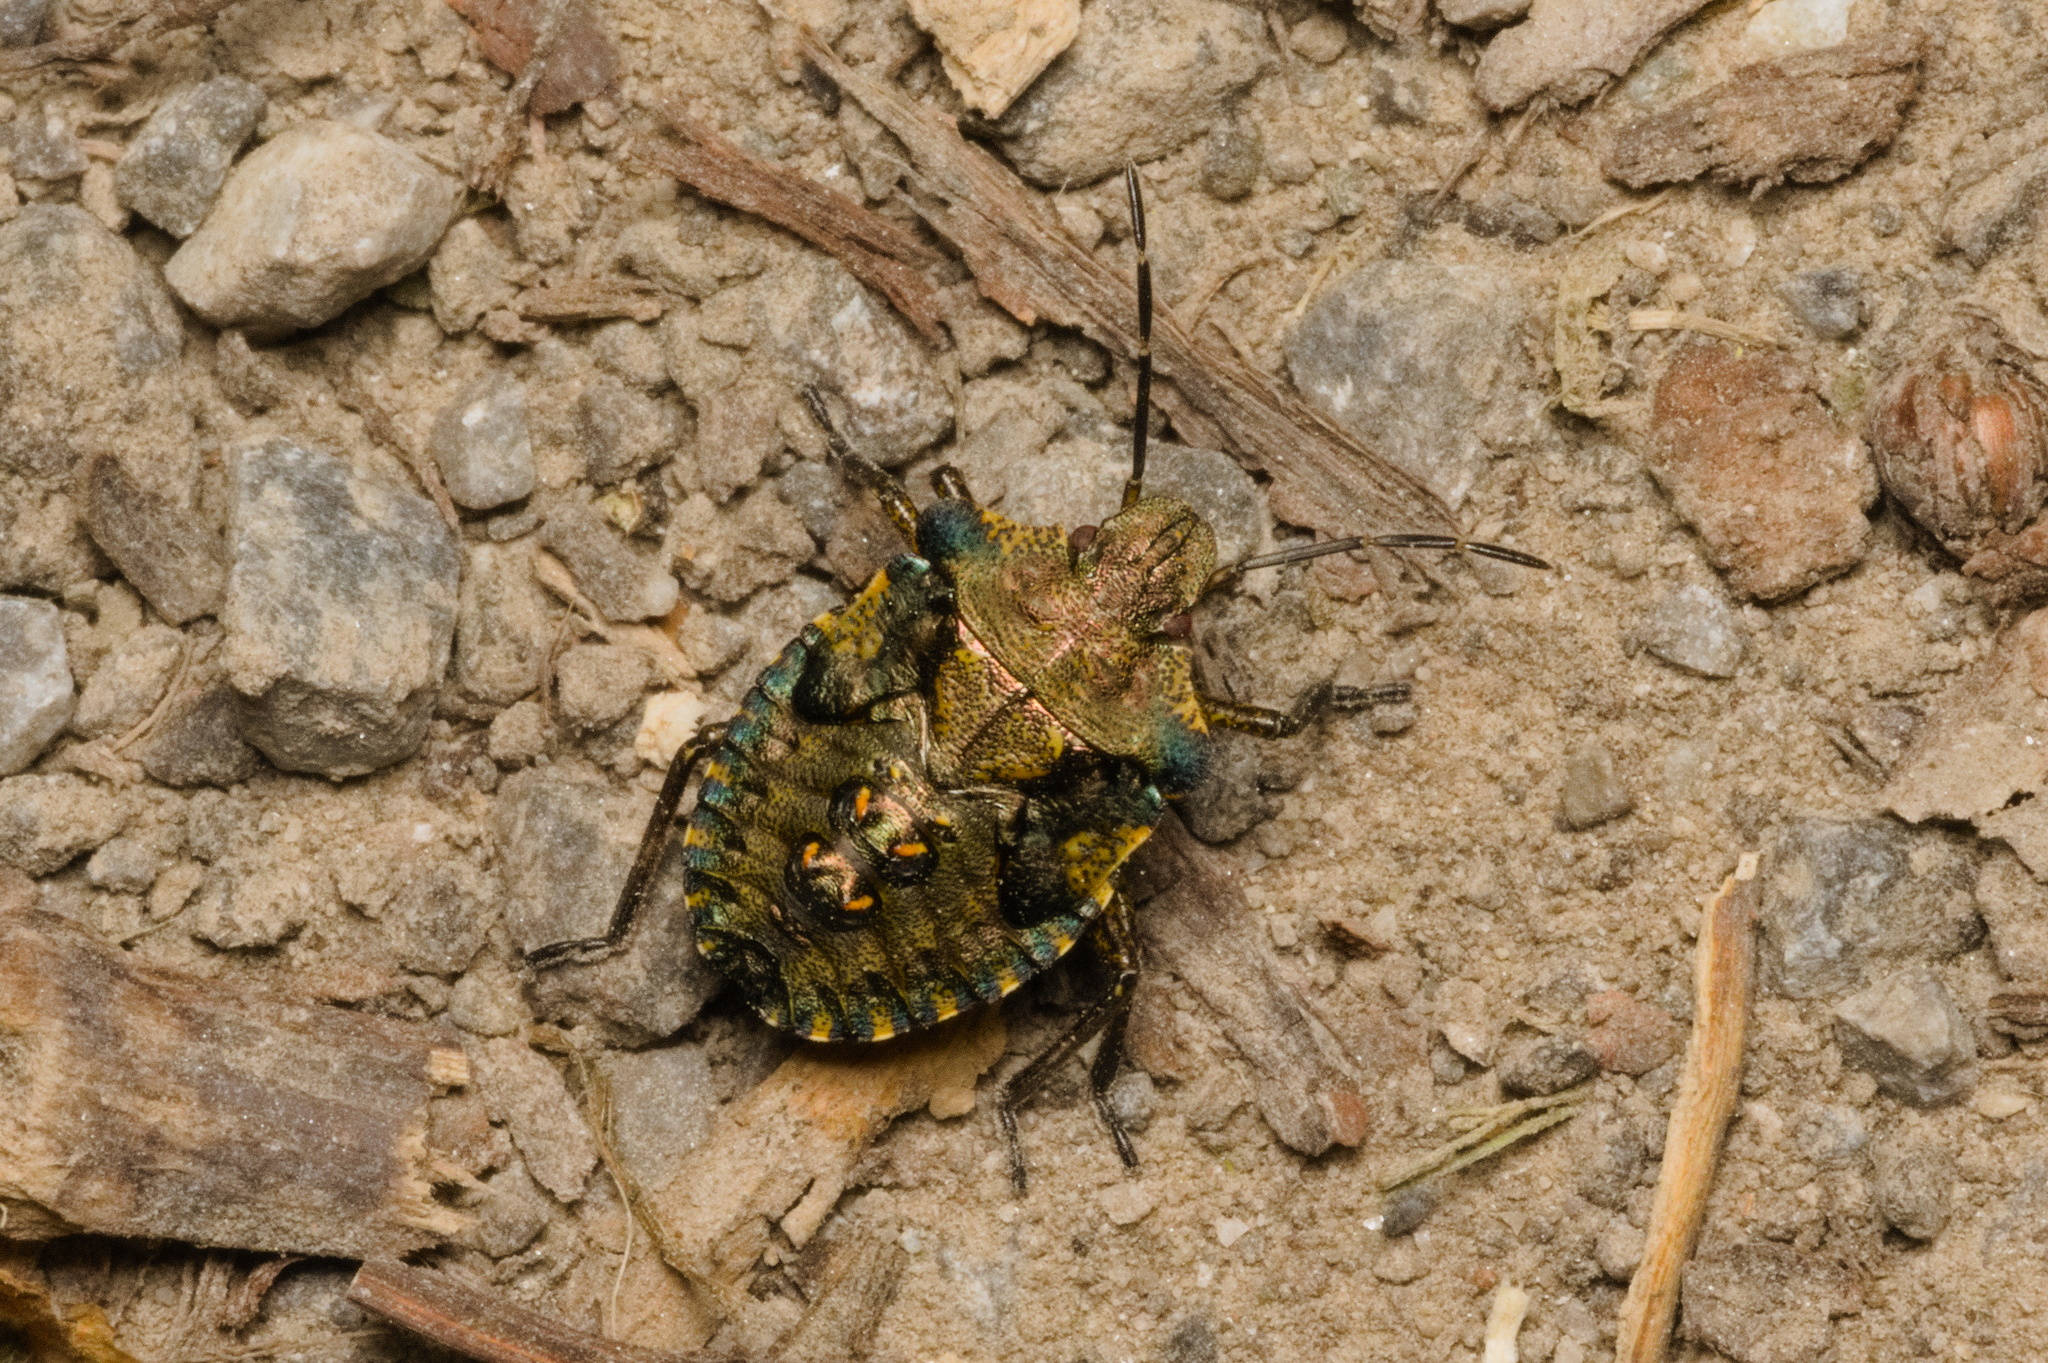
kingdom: Animalia
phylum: Arthropoda
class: Insecta
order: Hemiptera
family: Pentatomidae
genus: Pentatoma
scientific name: Pentatoma rufipes
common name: Forest bug
